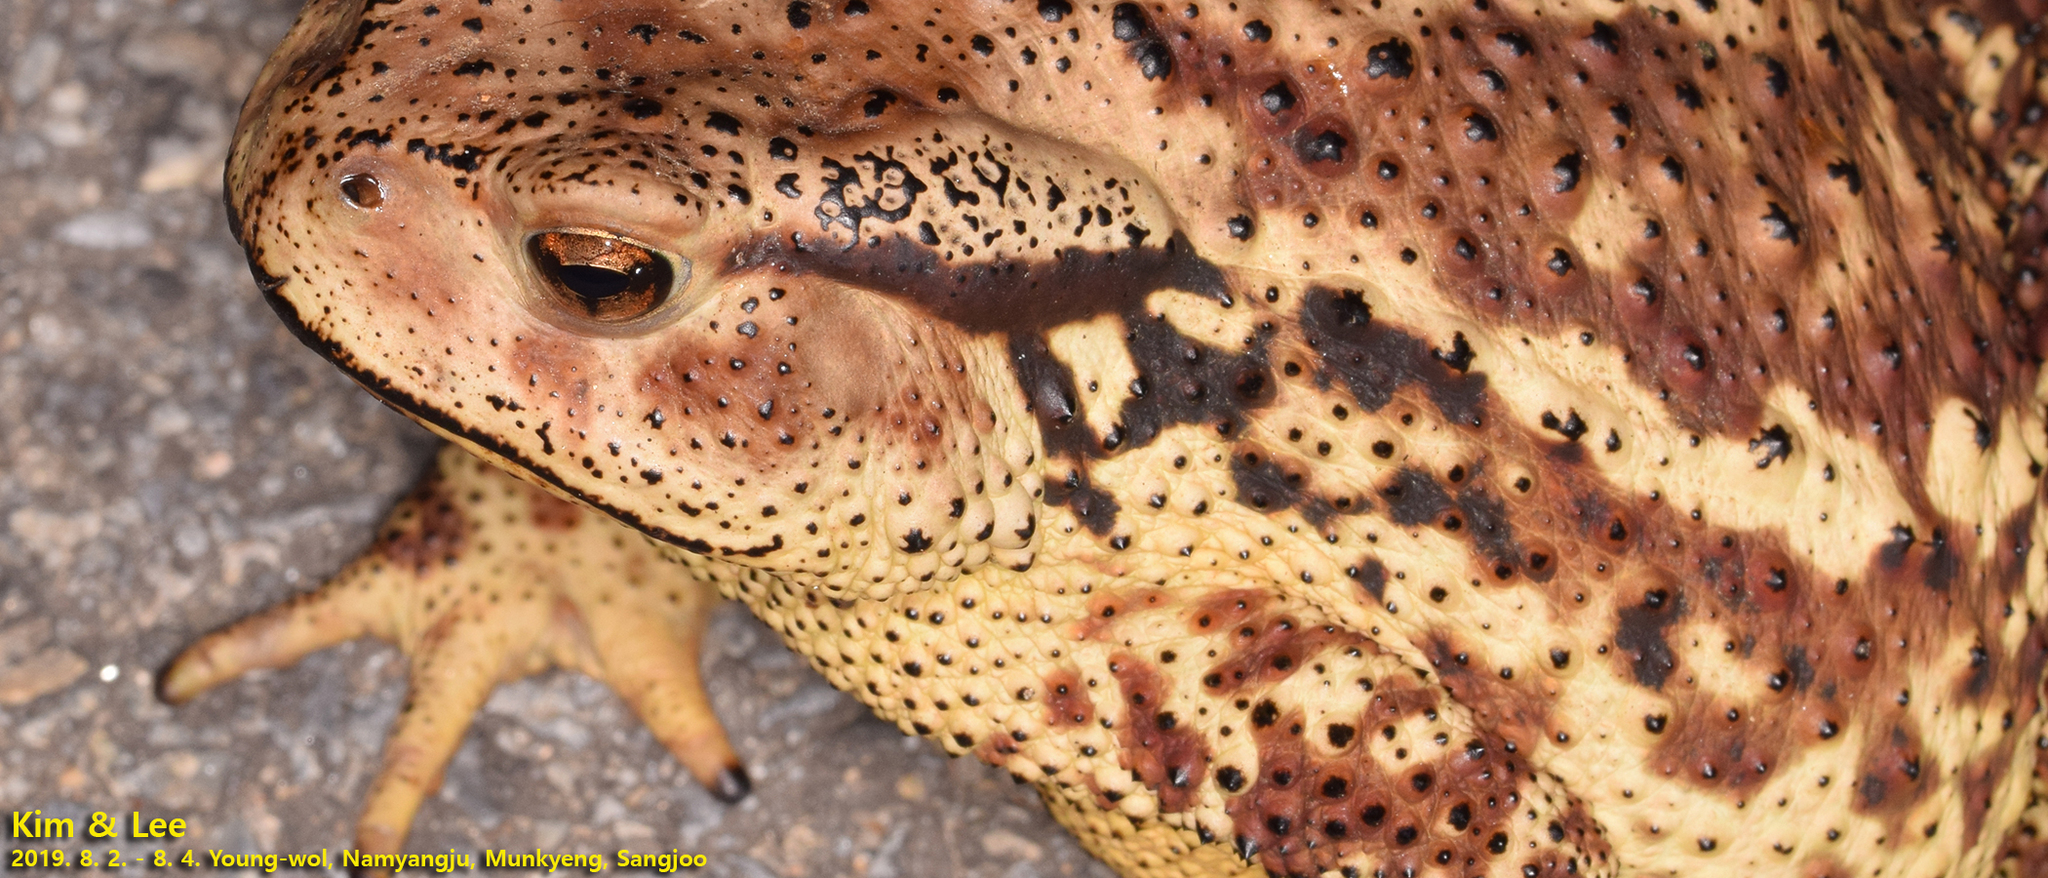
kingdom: Animalia
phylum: Chordata
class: Amphibia
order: Anura
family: Bufonidae
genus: Bufo
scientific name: Bufo gargarizans
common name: Asiatic toad
